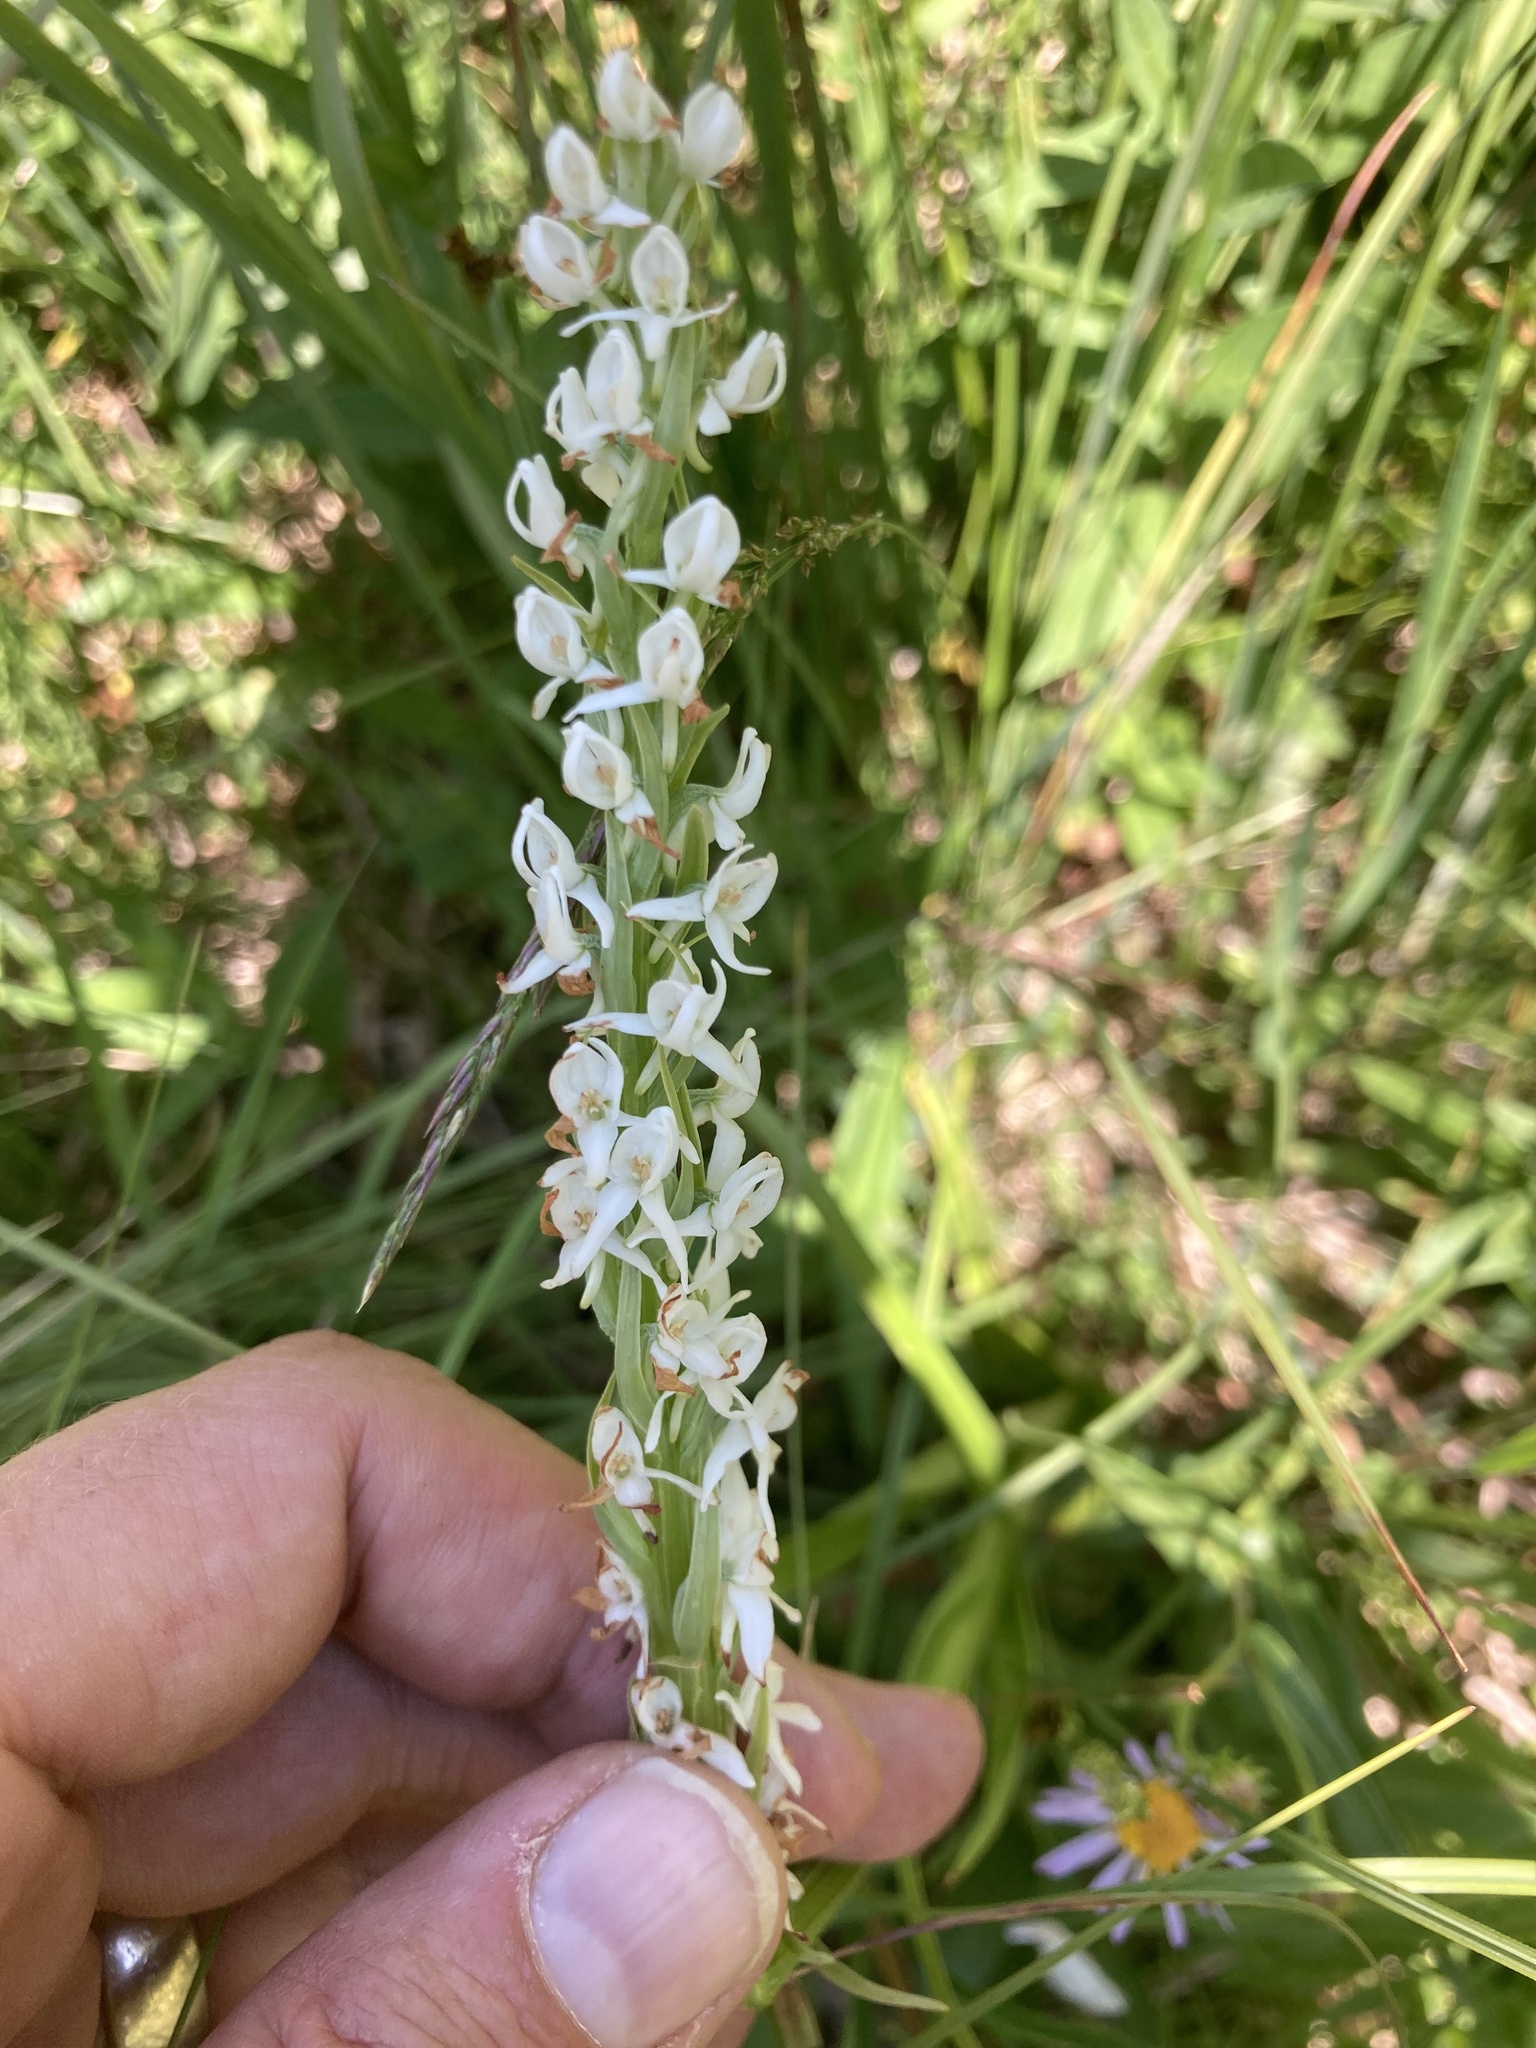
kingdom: Plantae
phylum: Tracheophyta
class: Liliopsida
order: Asparagales
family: Orchidaceae
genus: Platanthera
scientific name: Platanthera dilatata
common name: Bog candles
